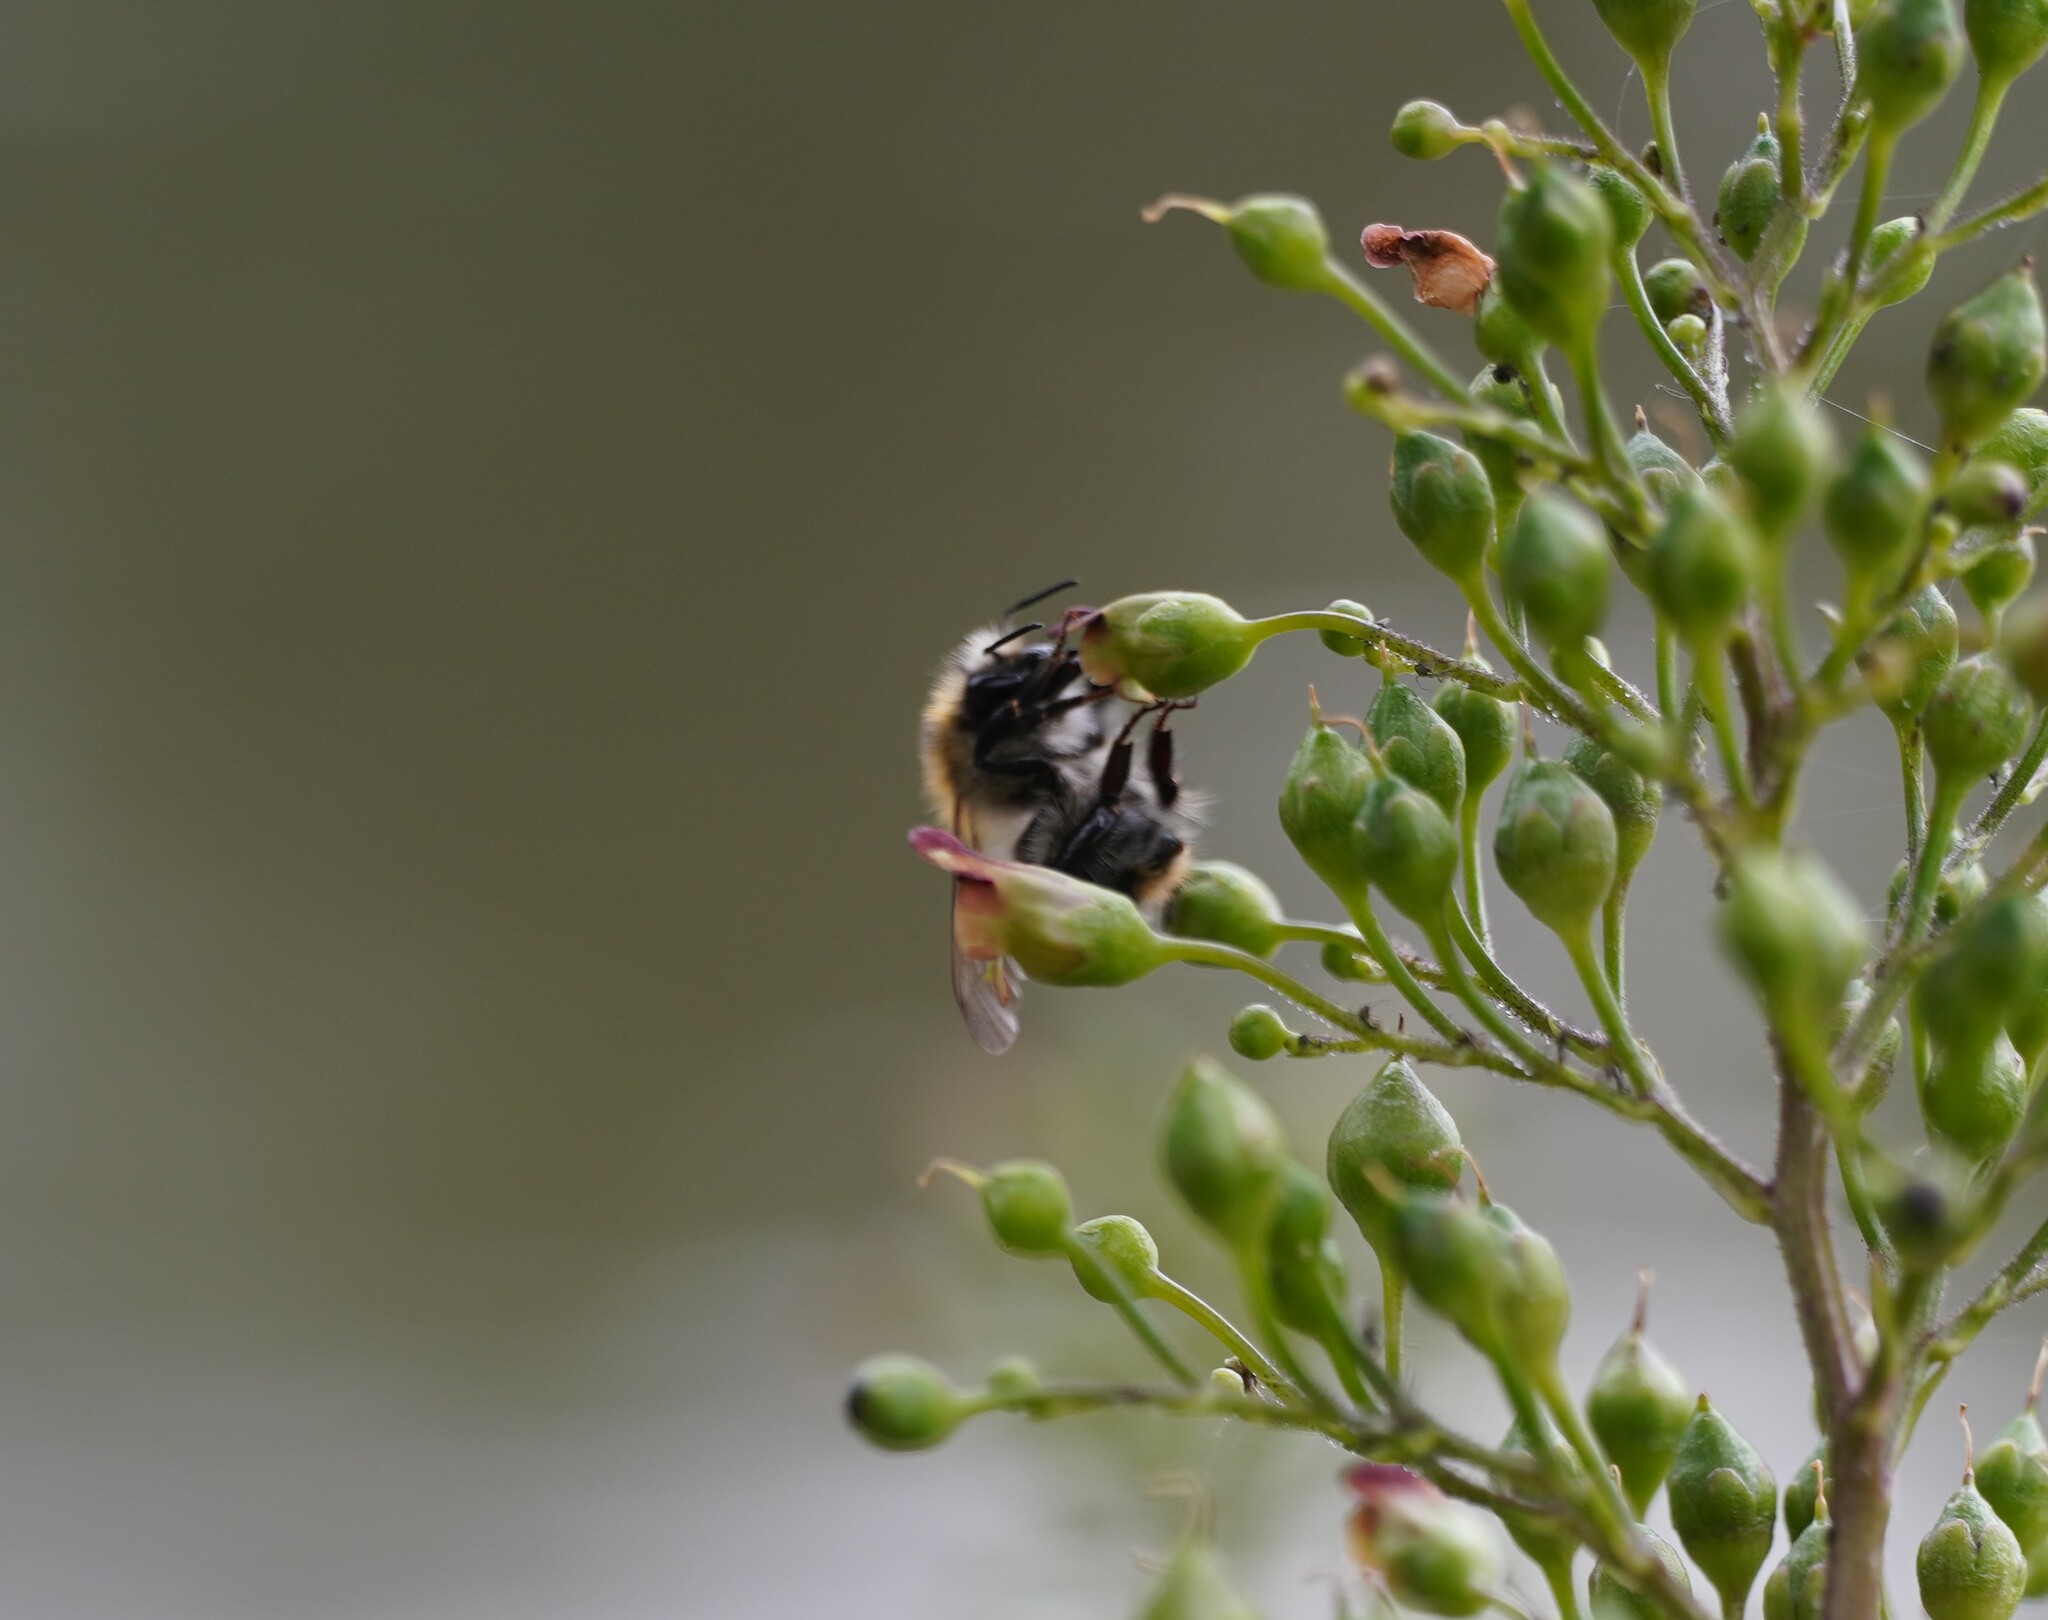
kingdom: Animalia
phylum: Arthropoda
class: Insecta
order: Hymenoptera
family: Apidae
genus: Bombus
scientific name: Bombus pascuorum
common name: Common carder bee
